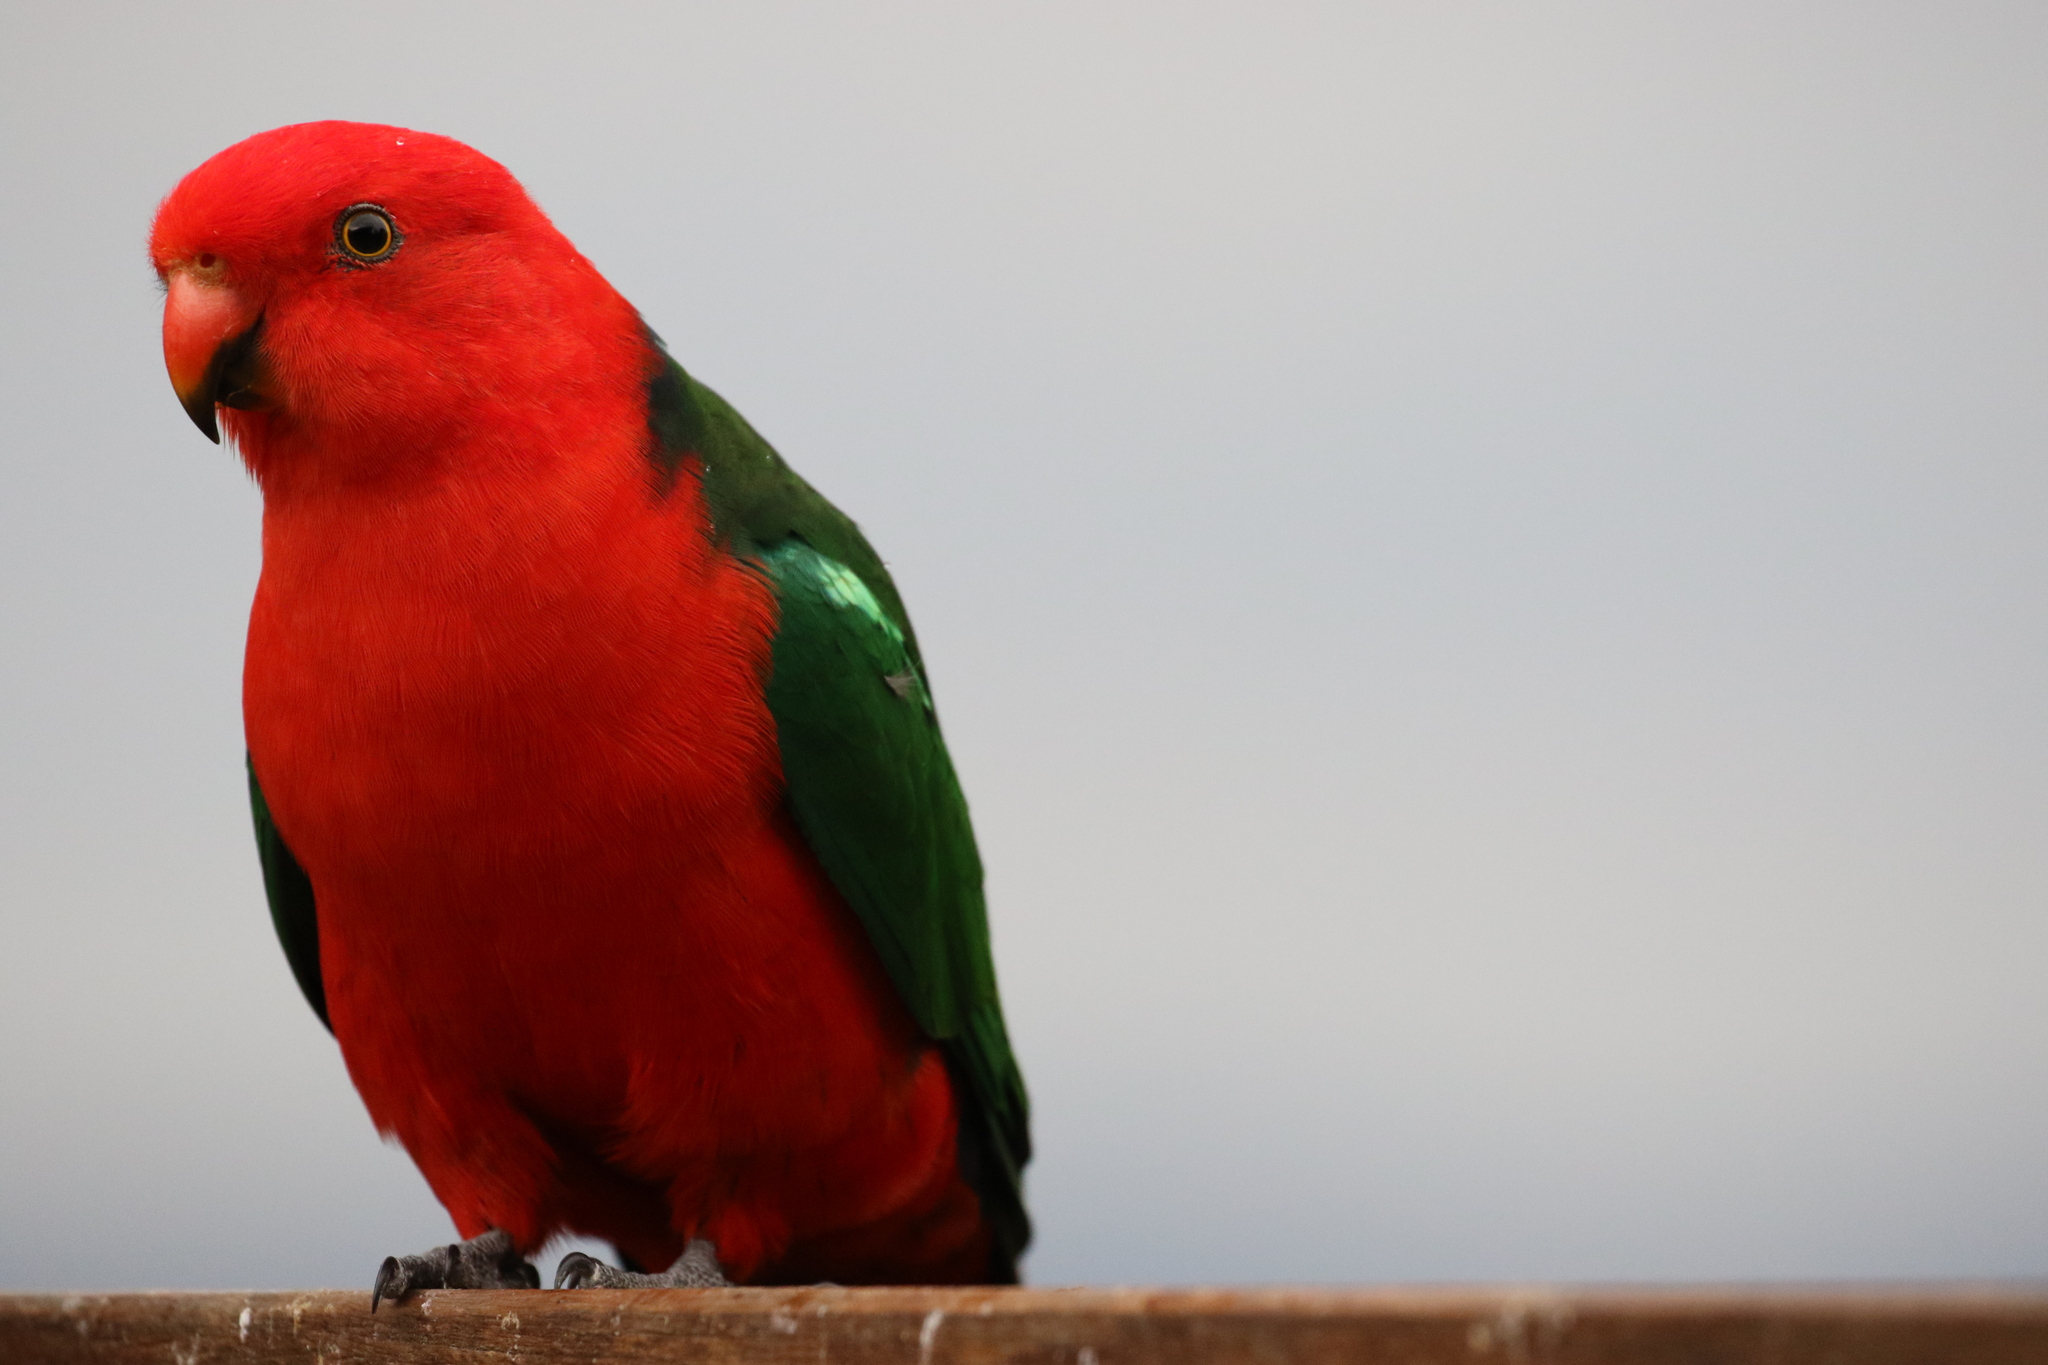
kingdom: Animalia
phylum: Chordata
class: Aves
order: Psittaciformes
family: Psittacidae
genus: Alisterus
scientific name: Alisterus scapularis
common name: Australian king parrot
